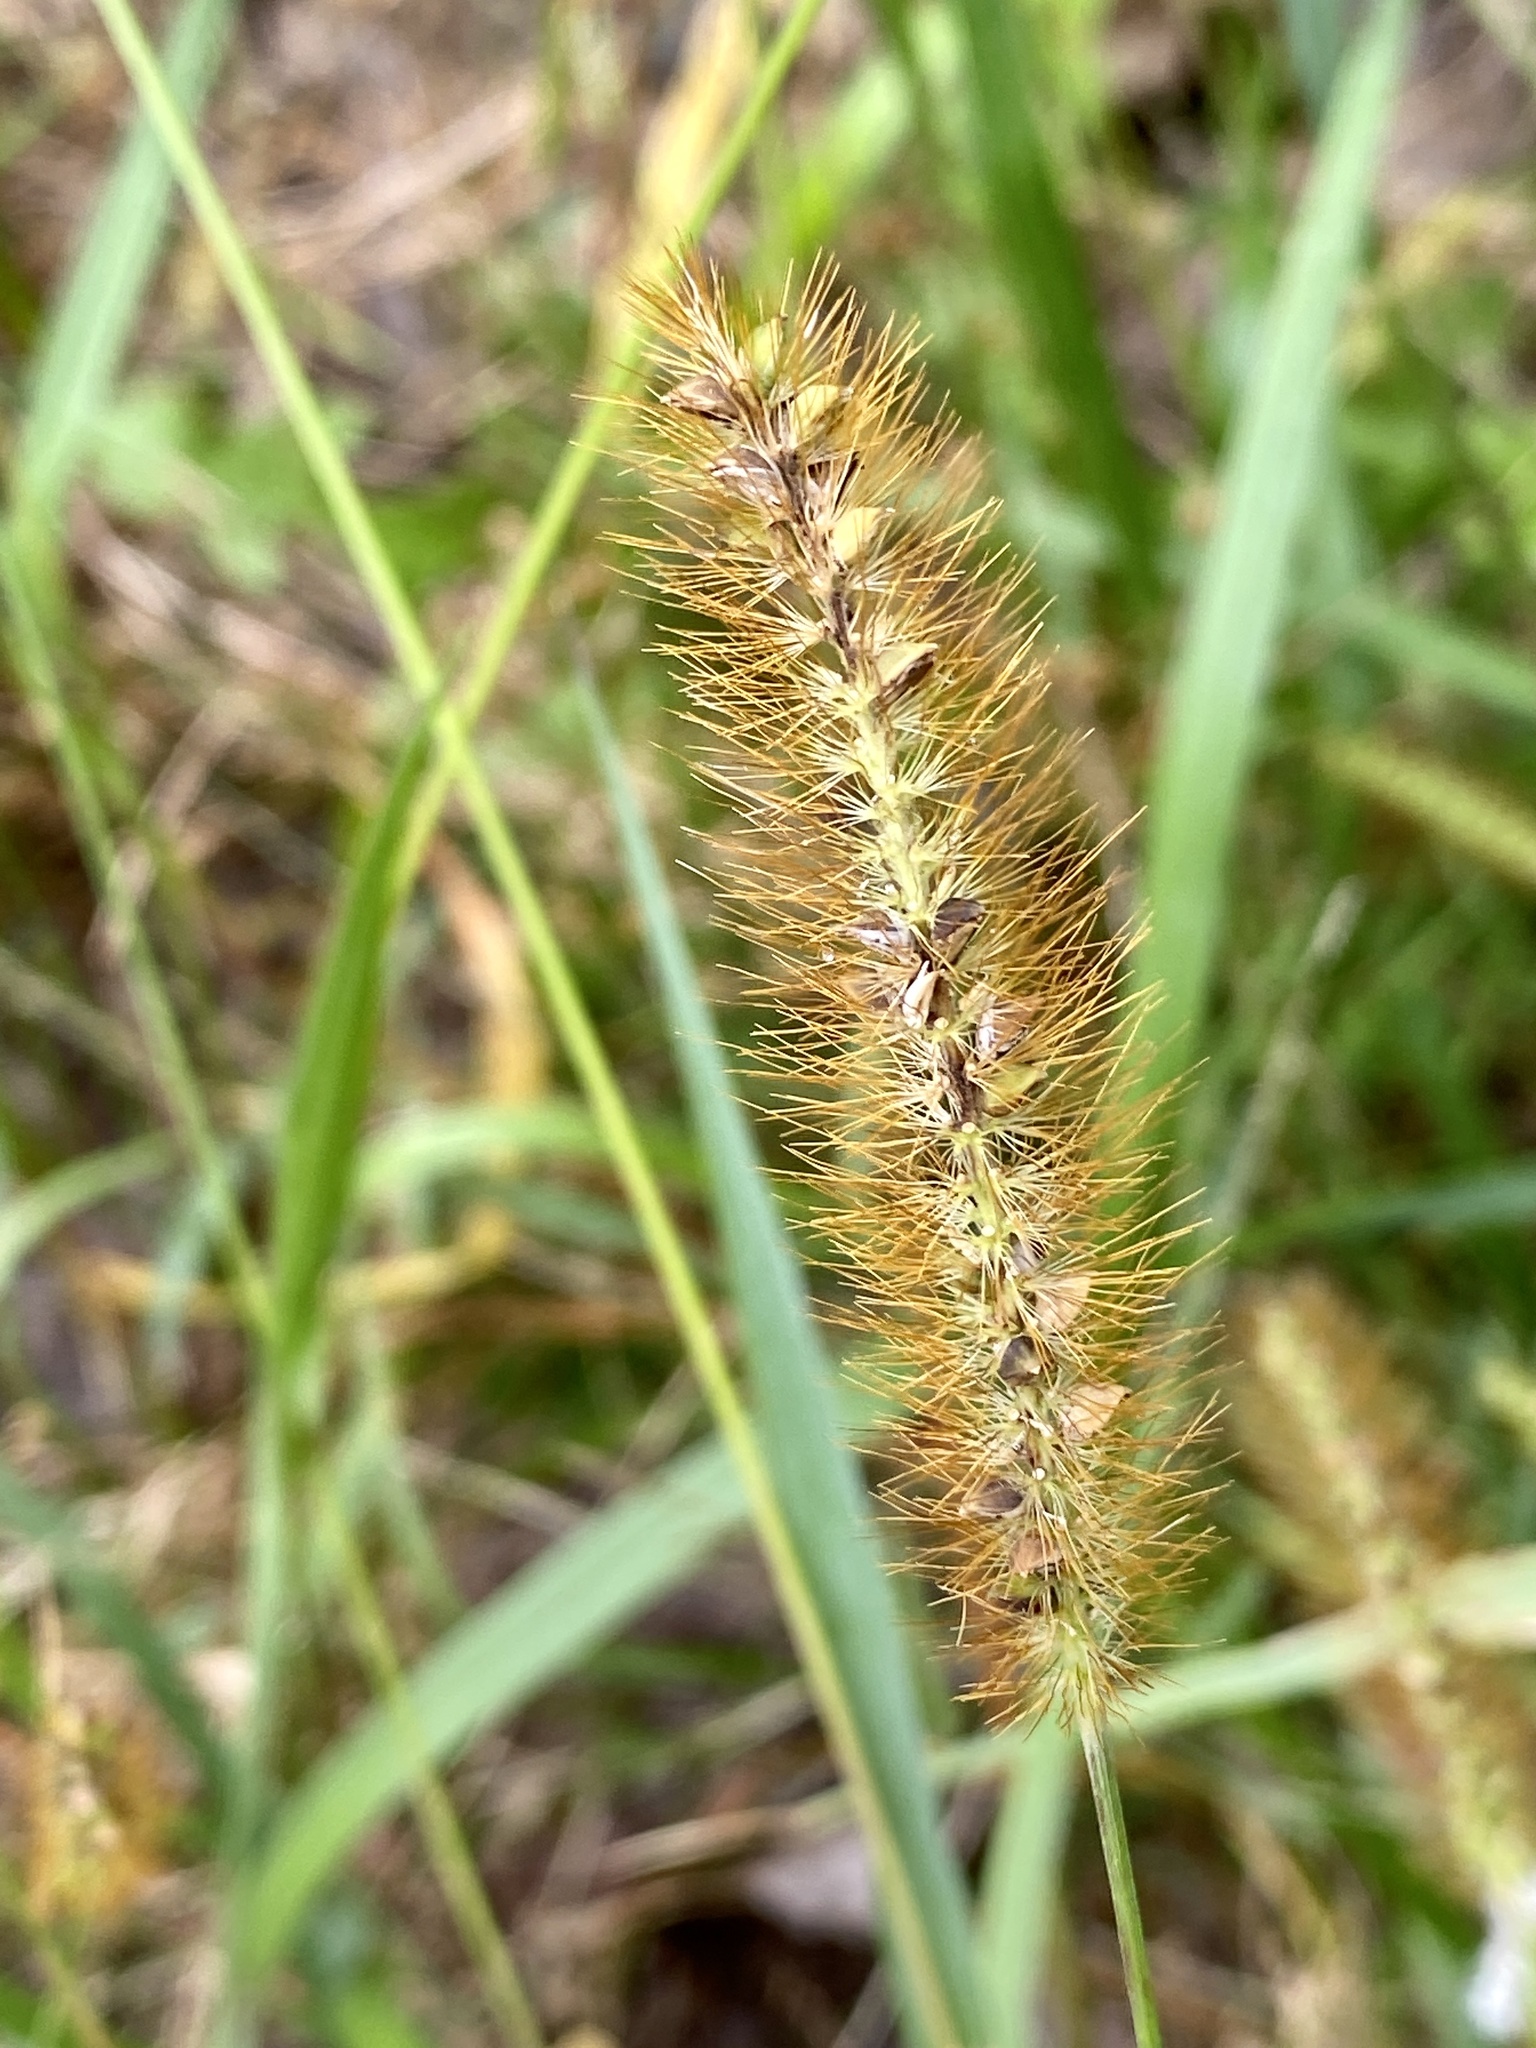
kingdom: Plantae
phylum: Tracheophyta
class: Liliopsida
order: Poales
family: Poaceae
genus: Setaria
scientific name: Setaria pumila
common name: Yellow bristle-grass
